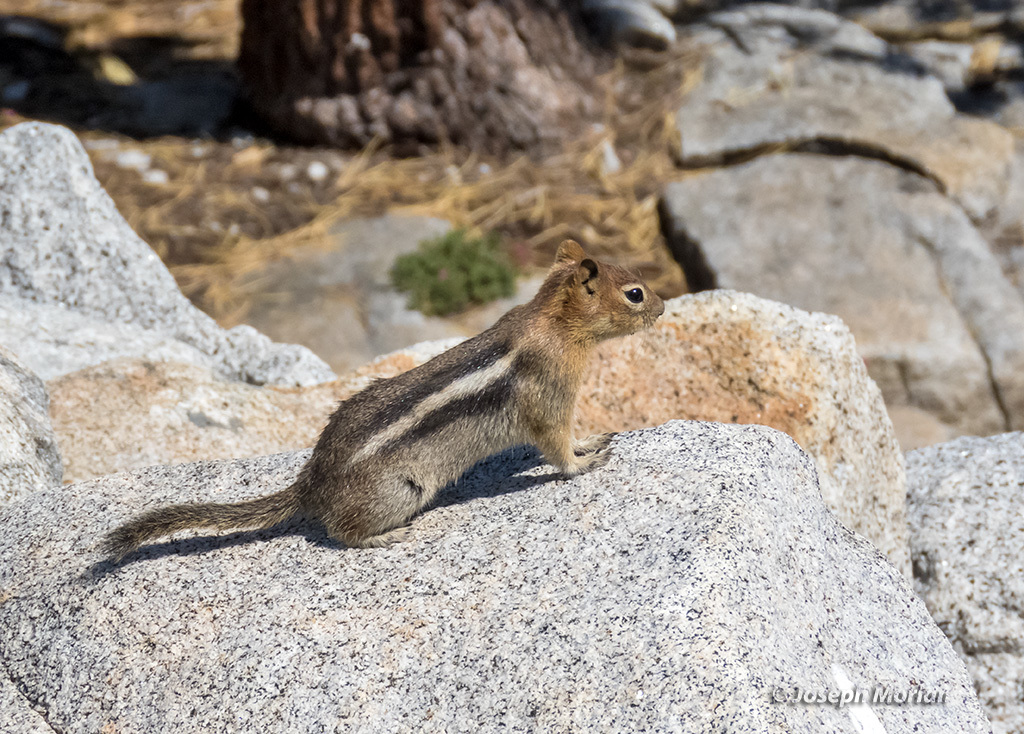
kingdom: Animalia
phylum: Chordata
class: Mammalia
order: Rodentia
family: Sciuridae
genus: Callospermophilus
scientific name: Callospermophilus lateralis
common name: Golden-mantled ground squirrel
